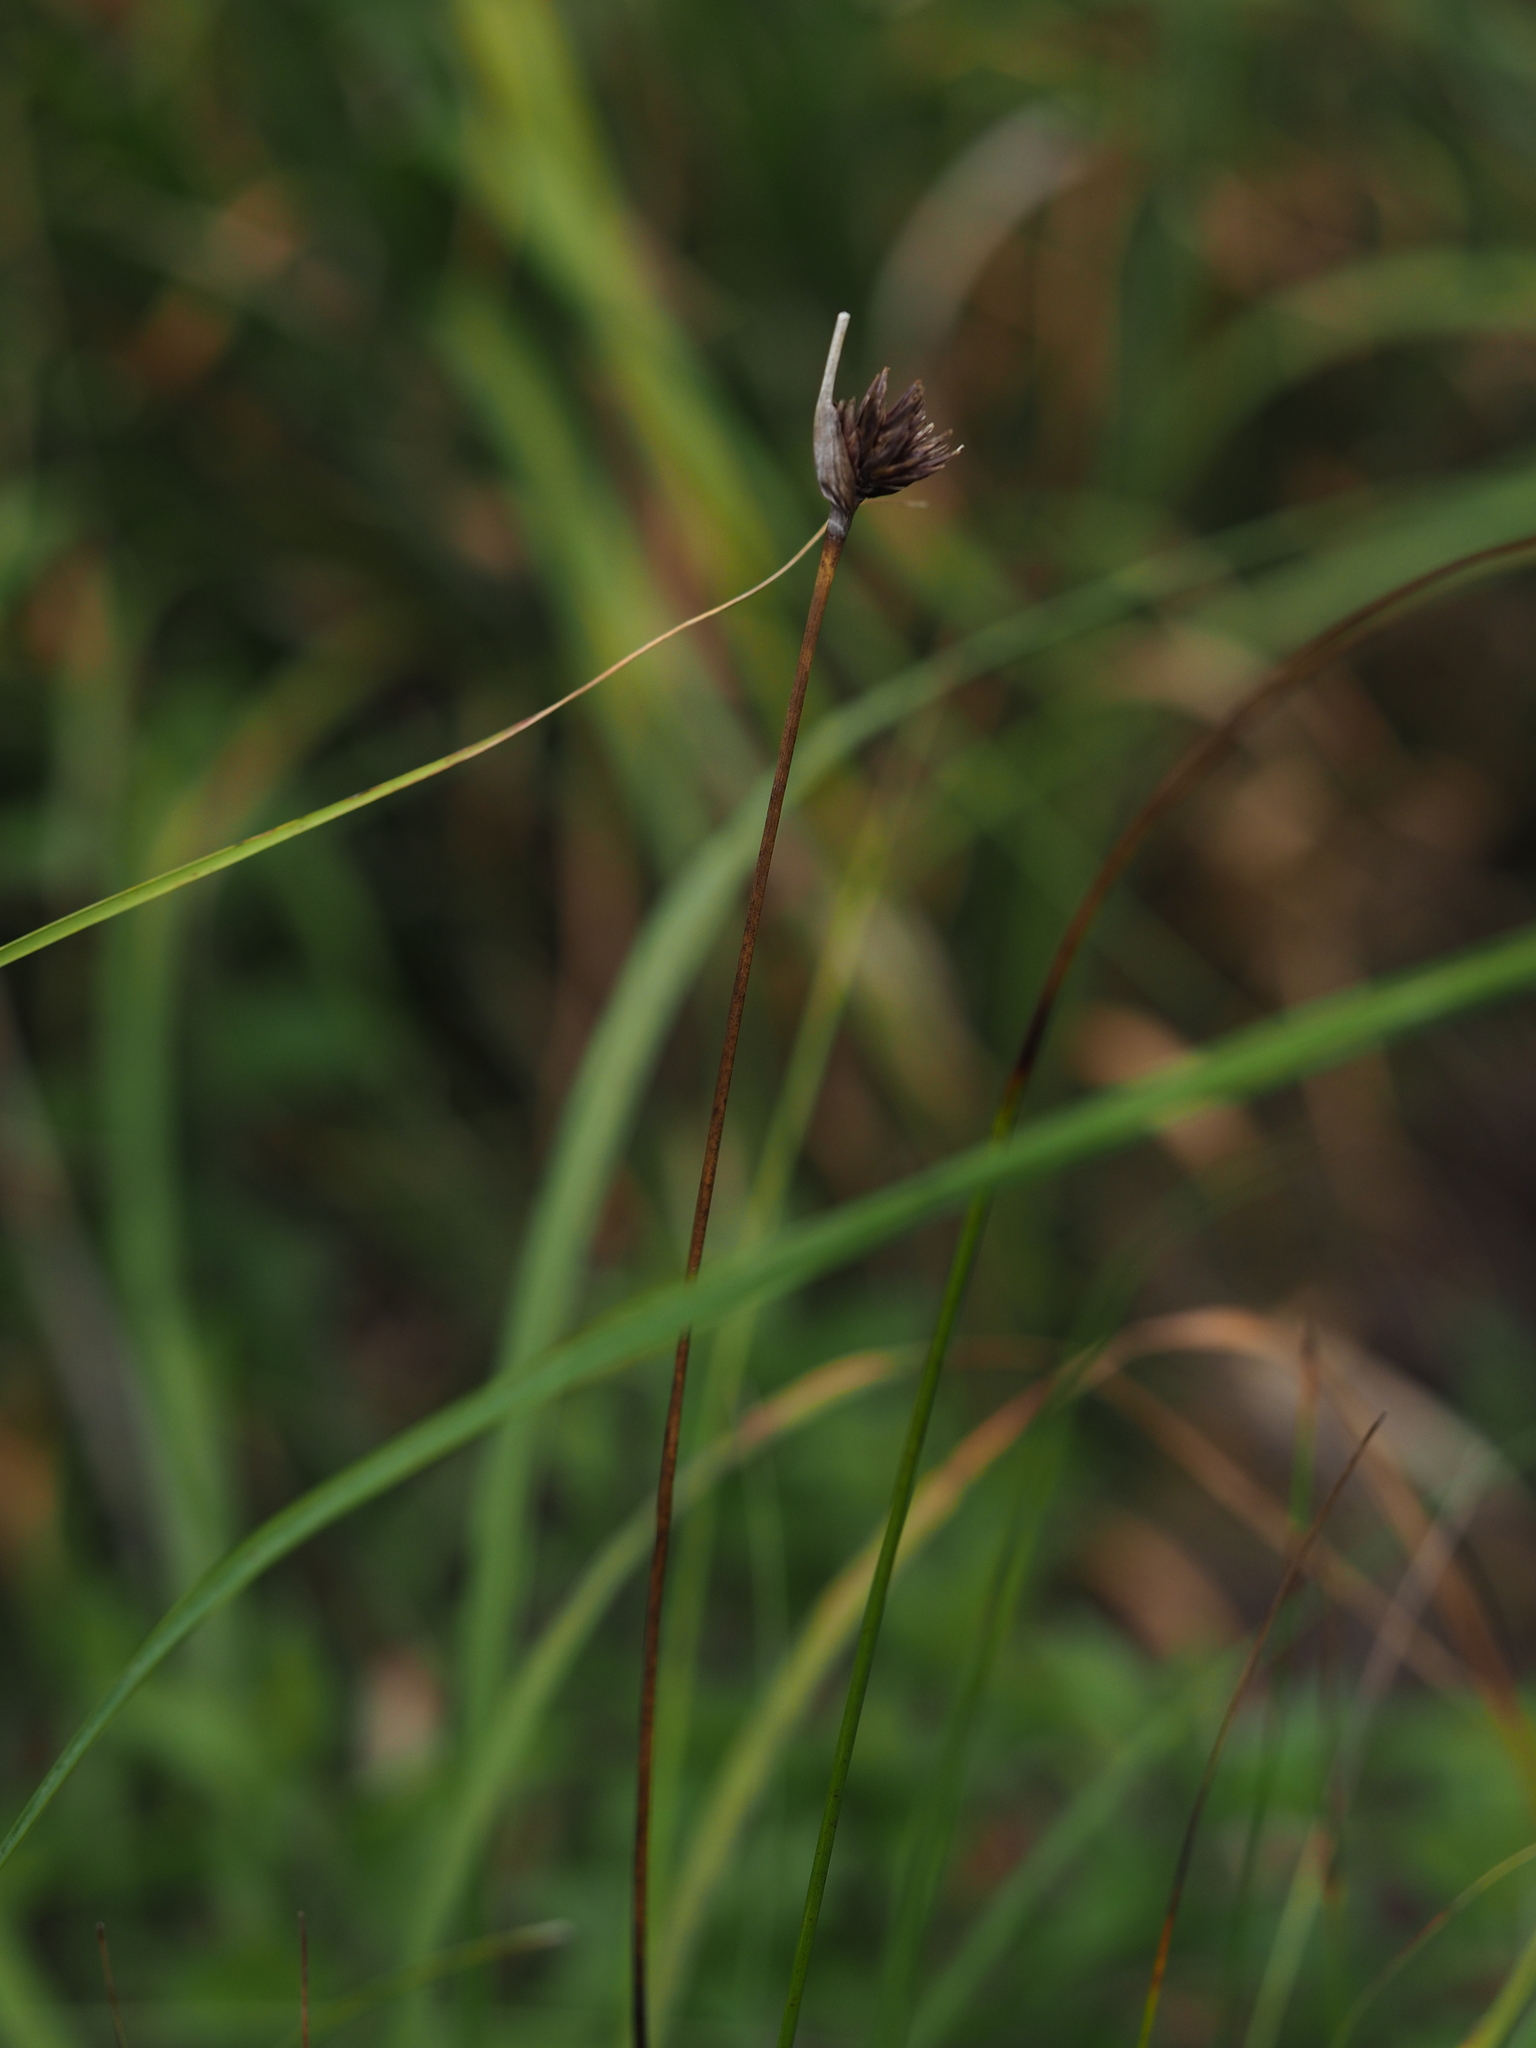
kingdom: Plantae
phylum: Tracheophyta
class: Liliopsida
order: Poales
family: Cyperaceae
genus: Schoenus
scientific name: Schoenus nigricans
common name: Black bog-rush
